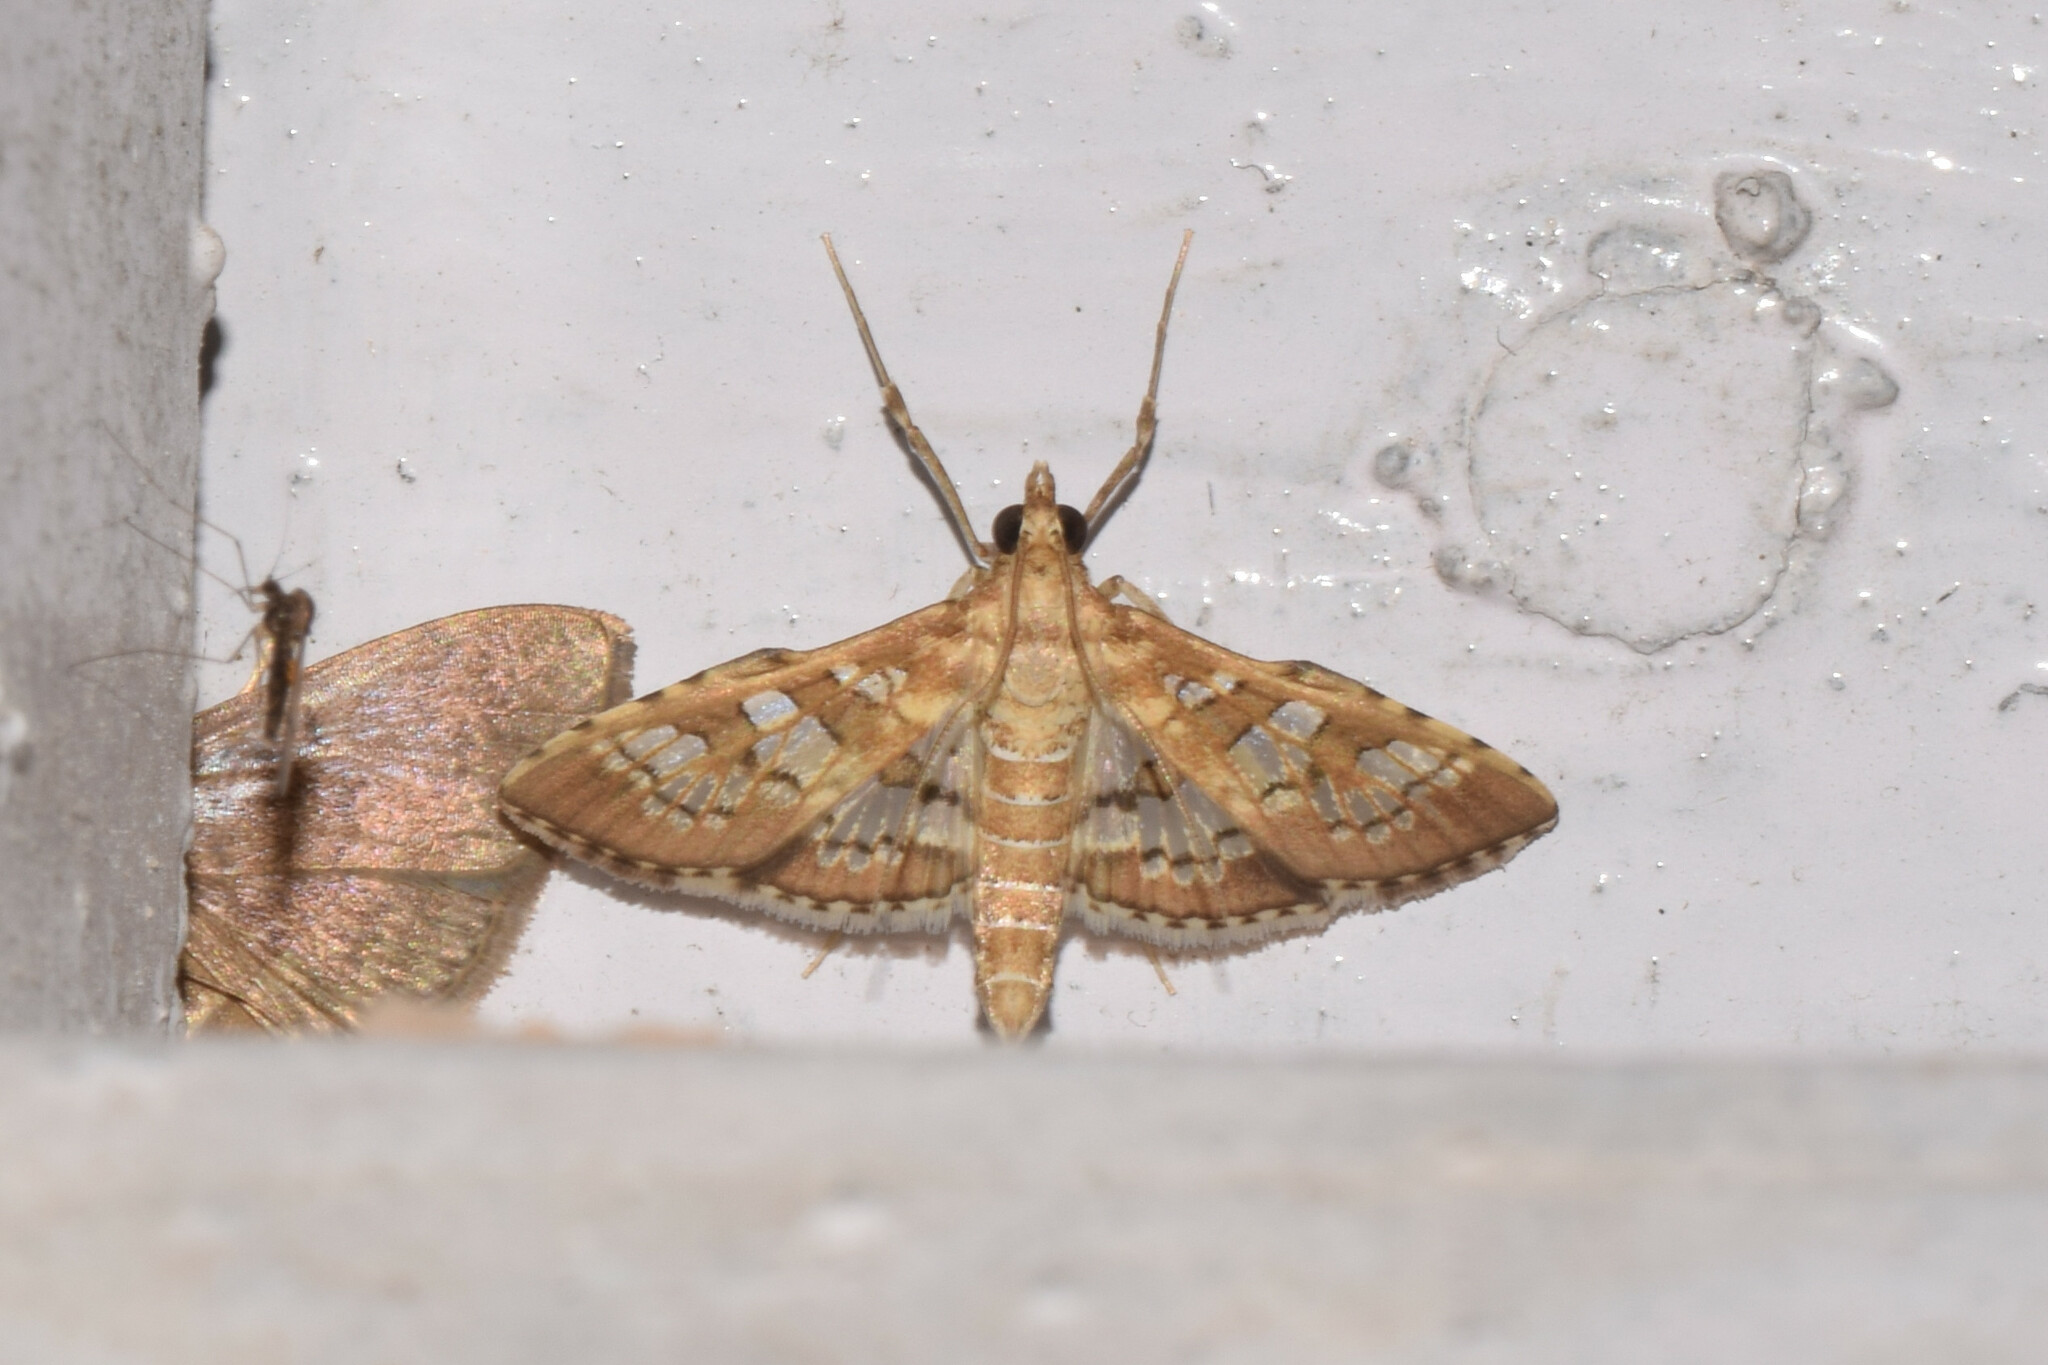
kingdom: Animalia
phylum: Arthropoda
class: Insecta
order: Lepidoptera
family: Crambidae
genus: Sameodes
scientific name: Sameodes cancellalis
